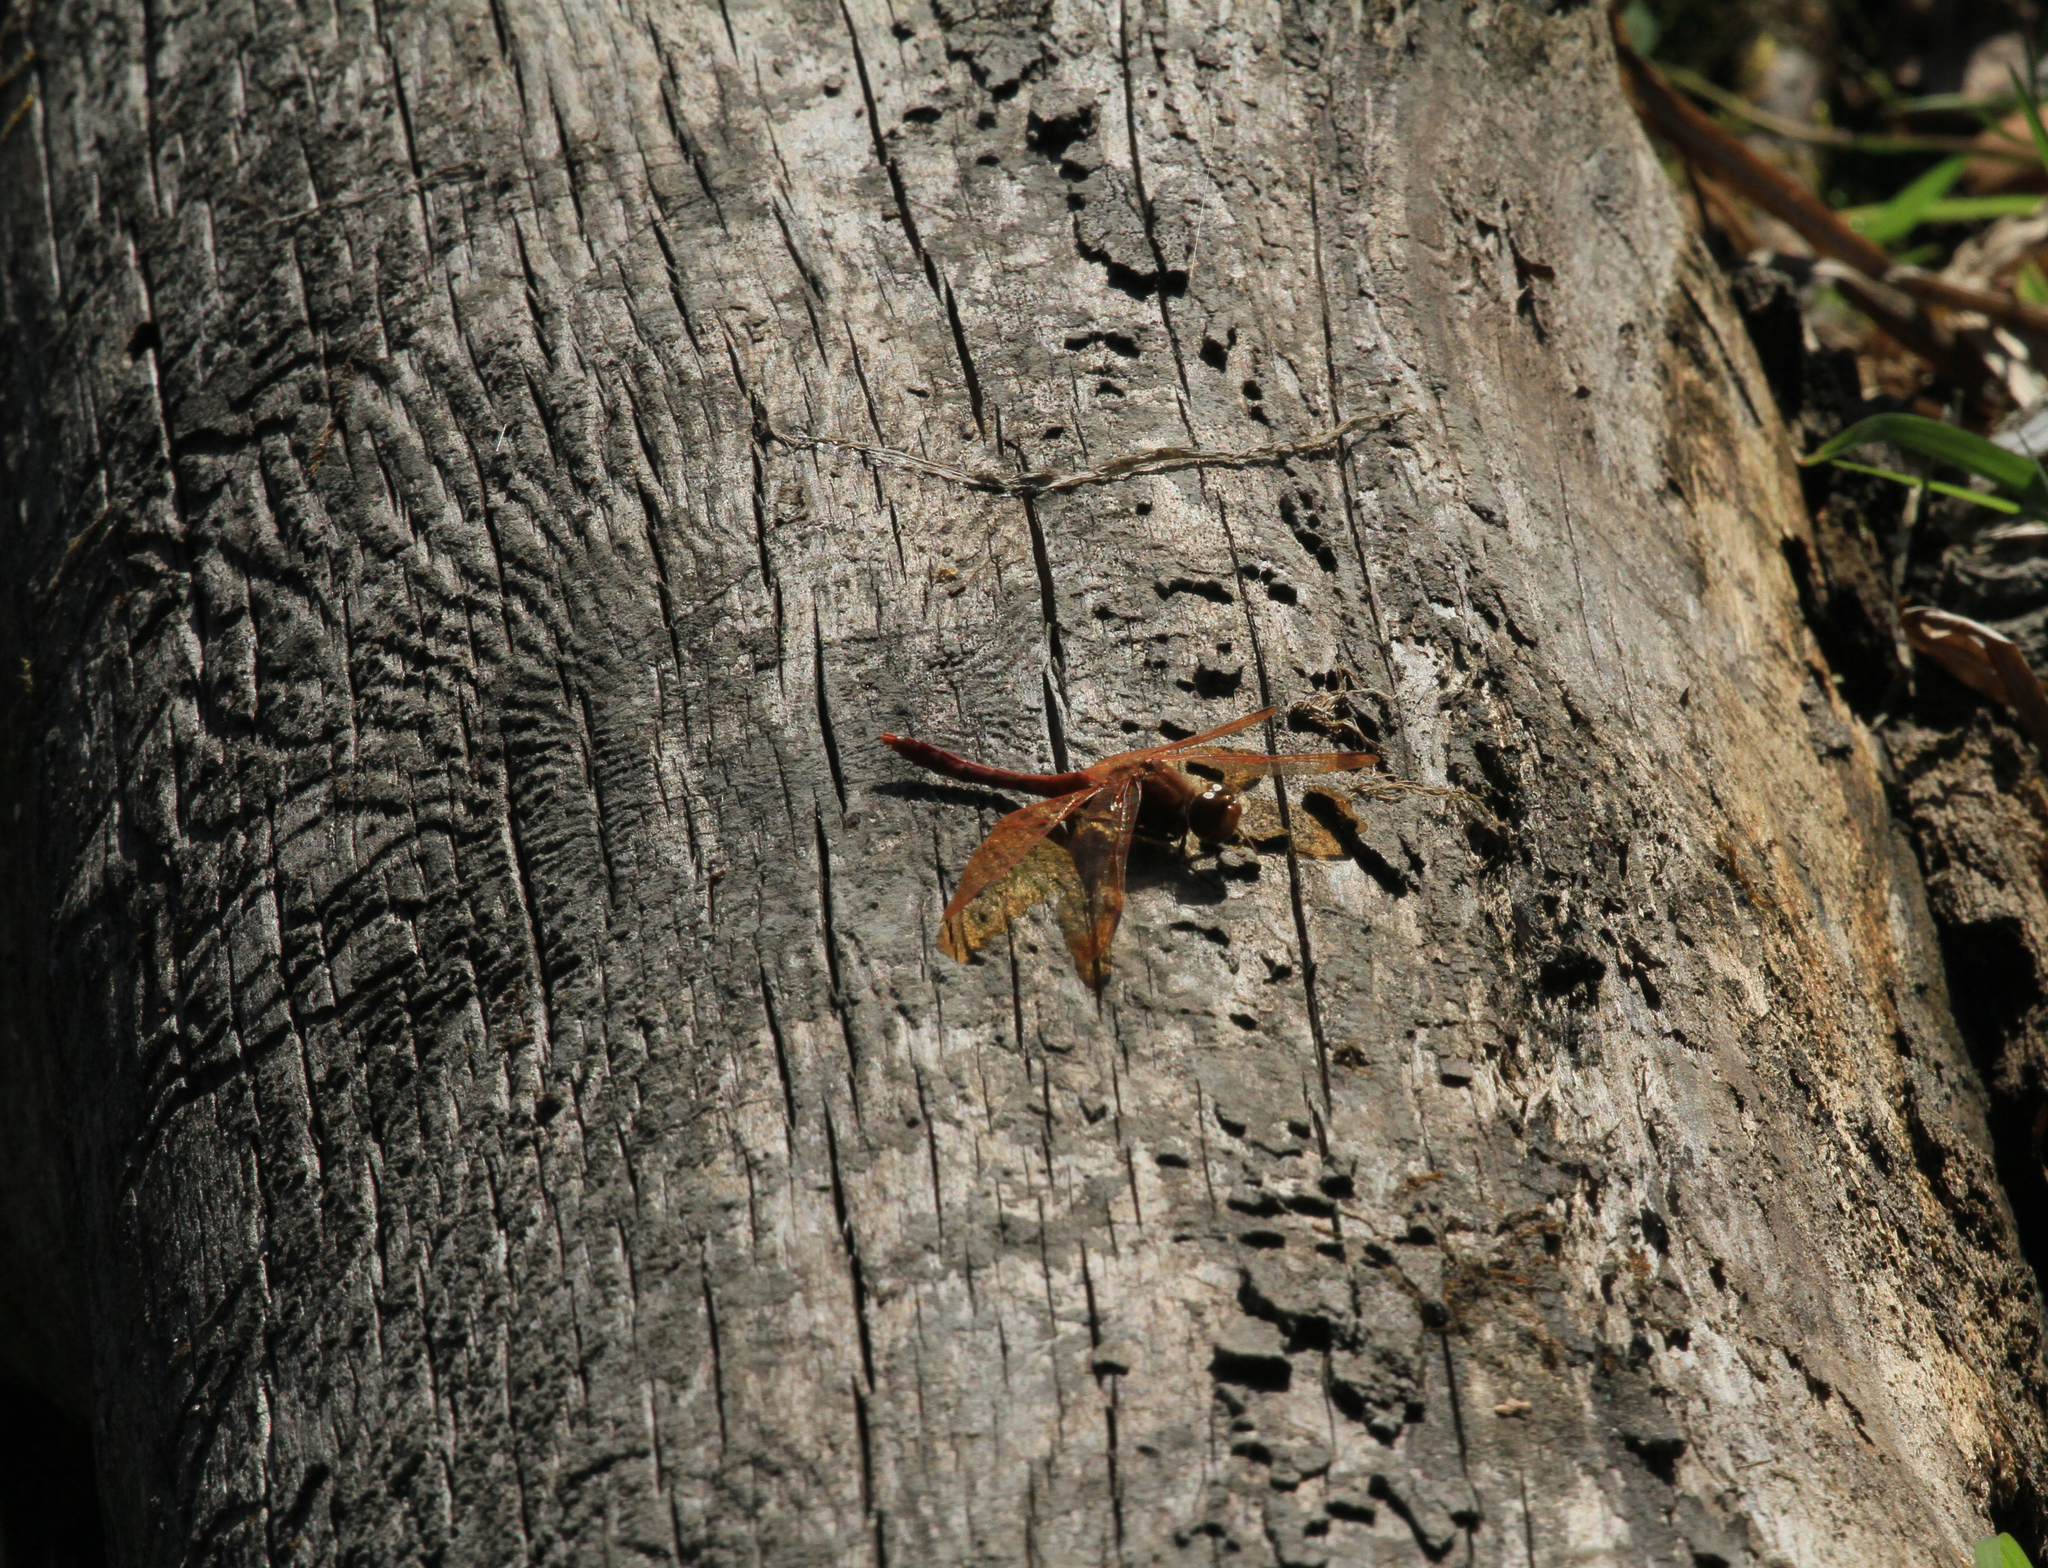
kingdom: Animalia
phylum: Arthropoda
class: Insecta
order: Odonata
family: Libellulidae
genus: Sympetrum
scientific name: Sympetrum croceolum
